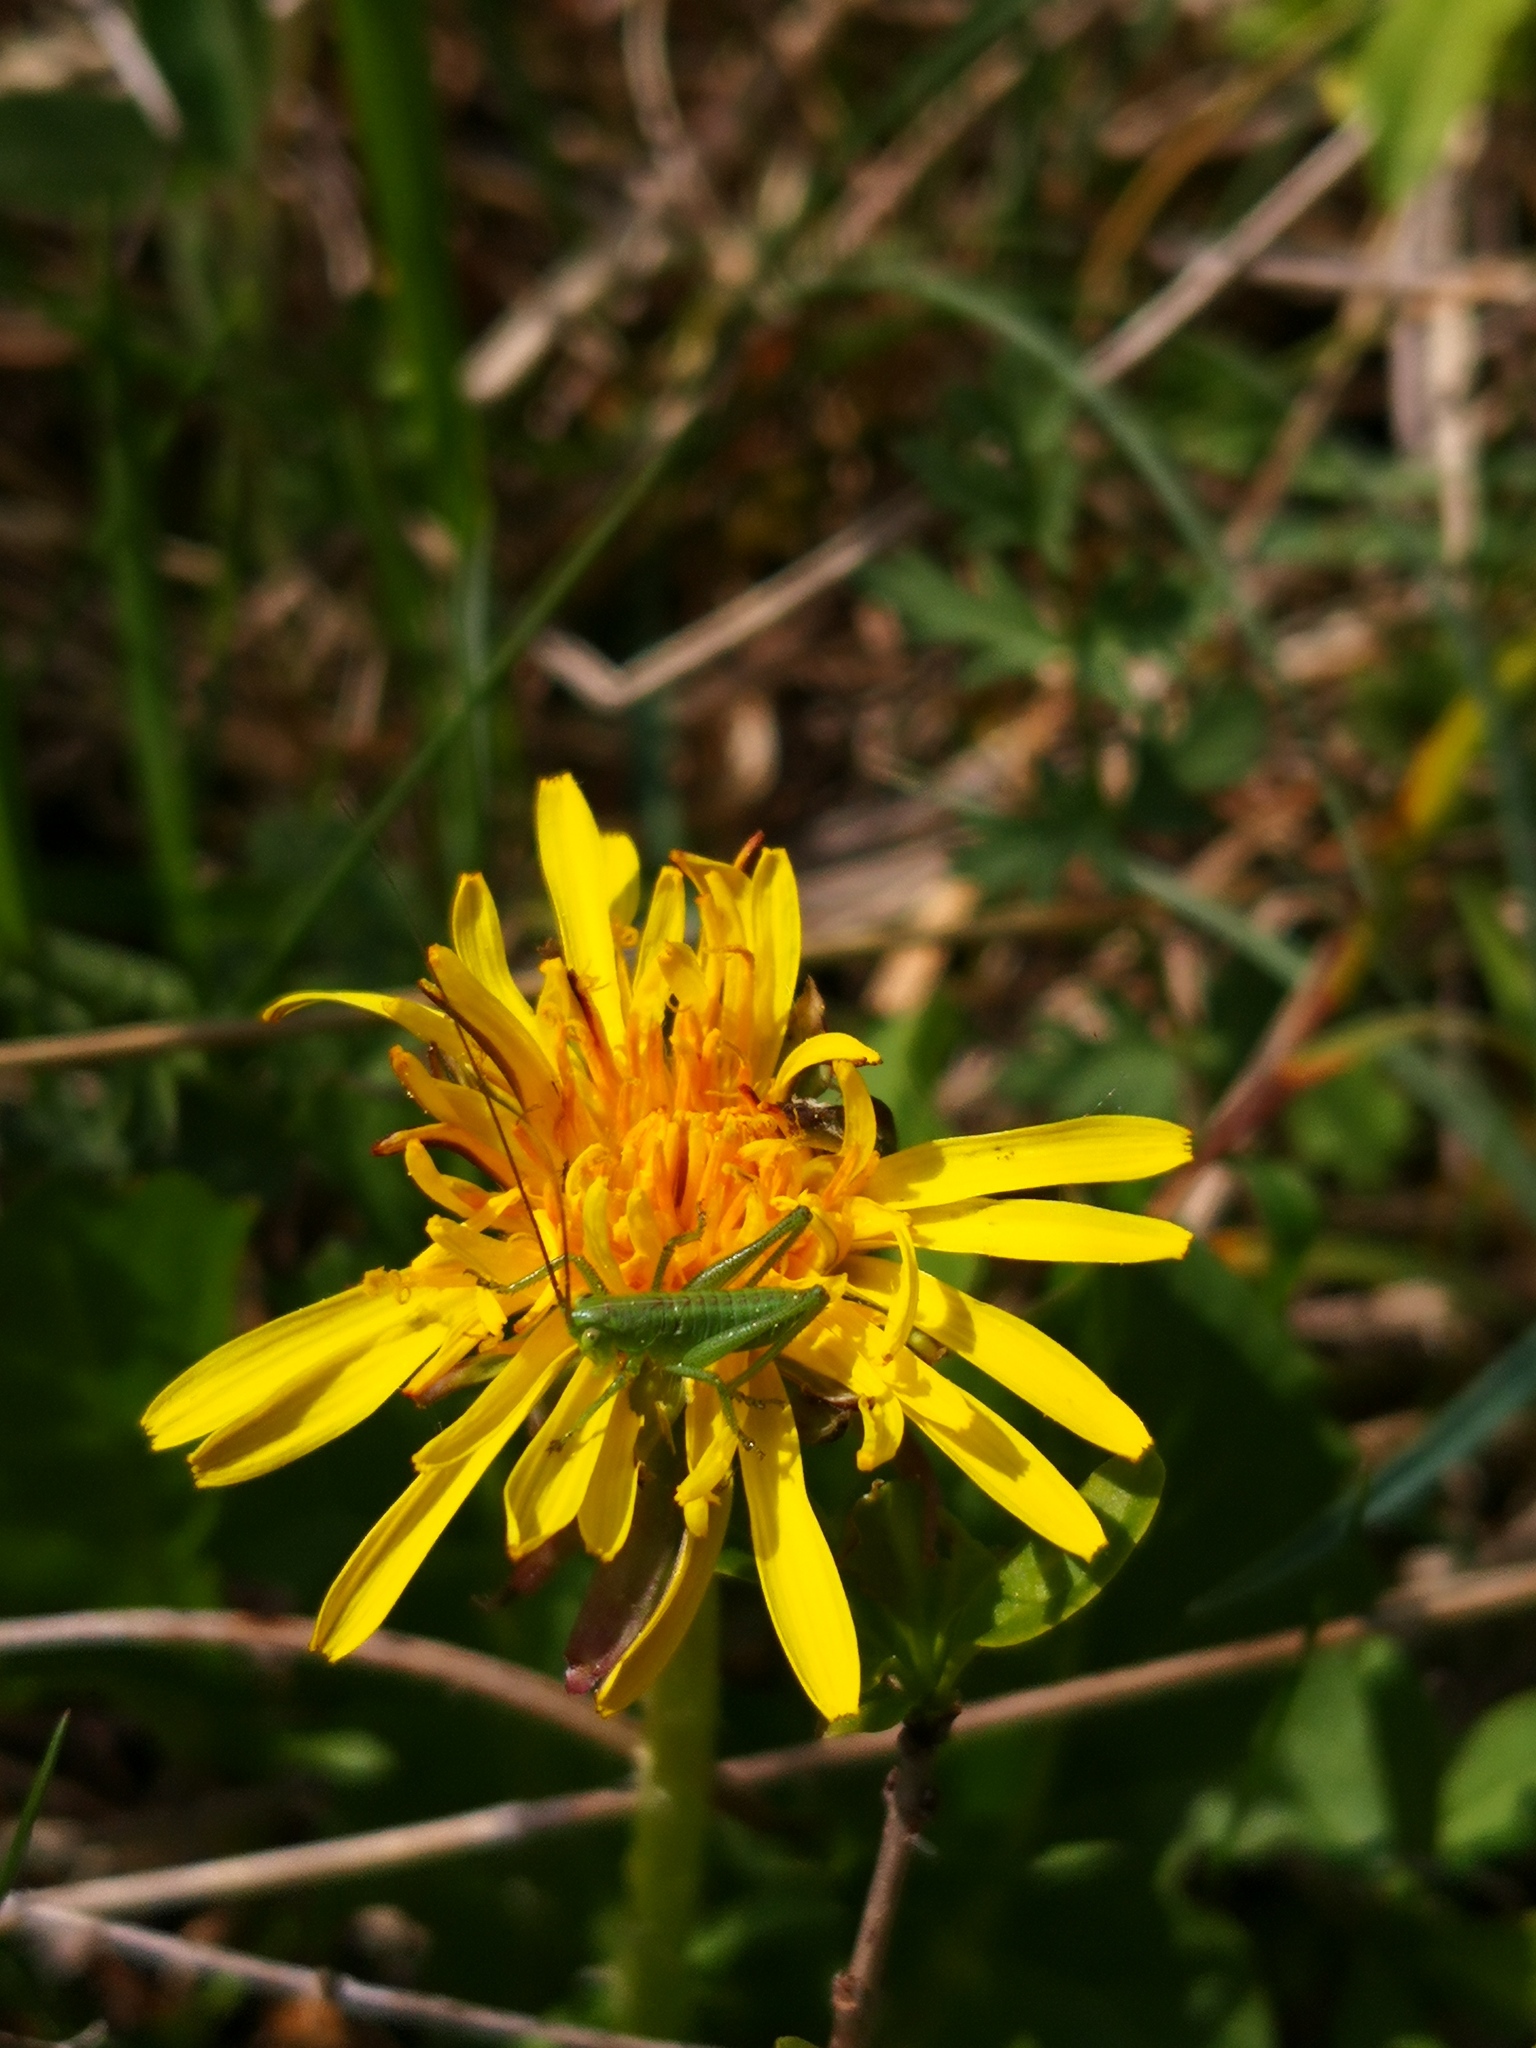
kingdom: Animalia
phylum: Arthropoda
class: Insecta
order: Orthoptera
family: Tettigoniidae
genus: Tettigonia
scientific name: Tettigonia viridissima
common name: Great green bush-cricket
